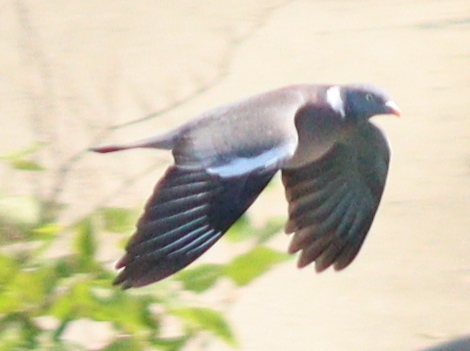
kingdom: Animalia
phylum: Chordata
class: Aves
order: Columbiformes
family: Columbidae
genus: Columba
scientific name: Columba palumbus
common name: Common wood pigeon
